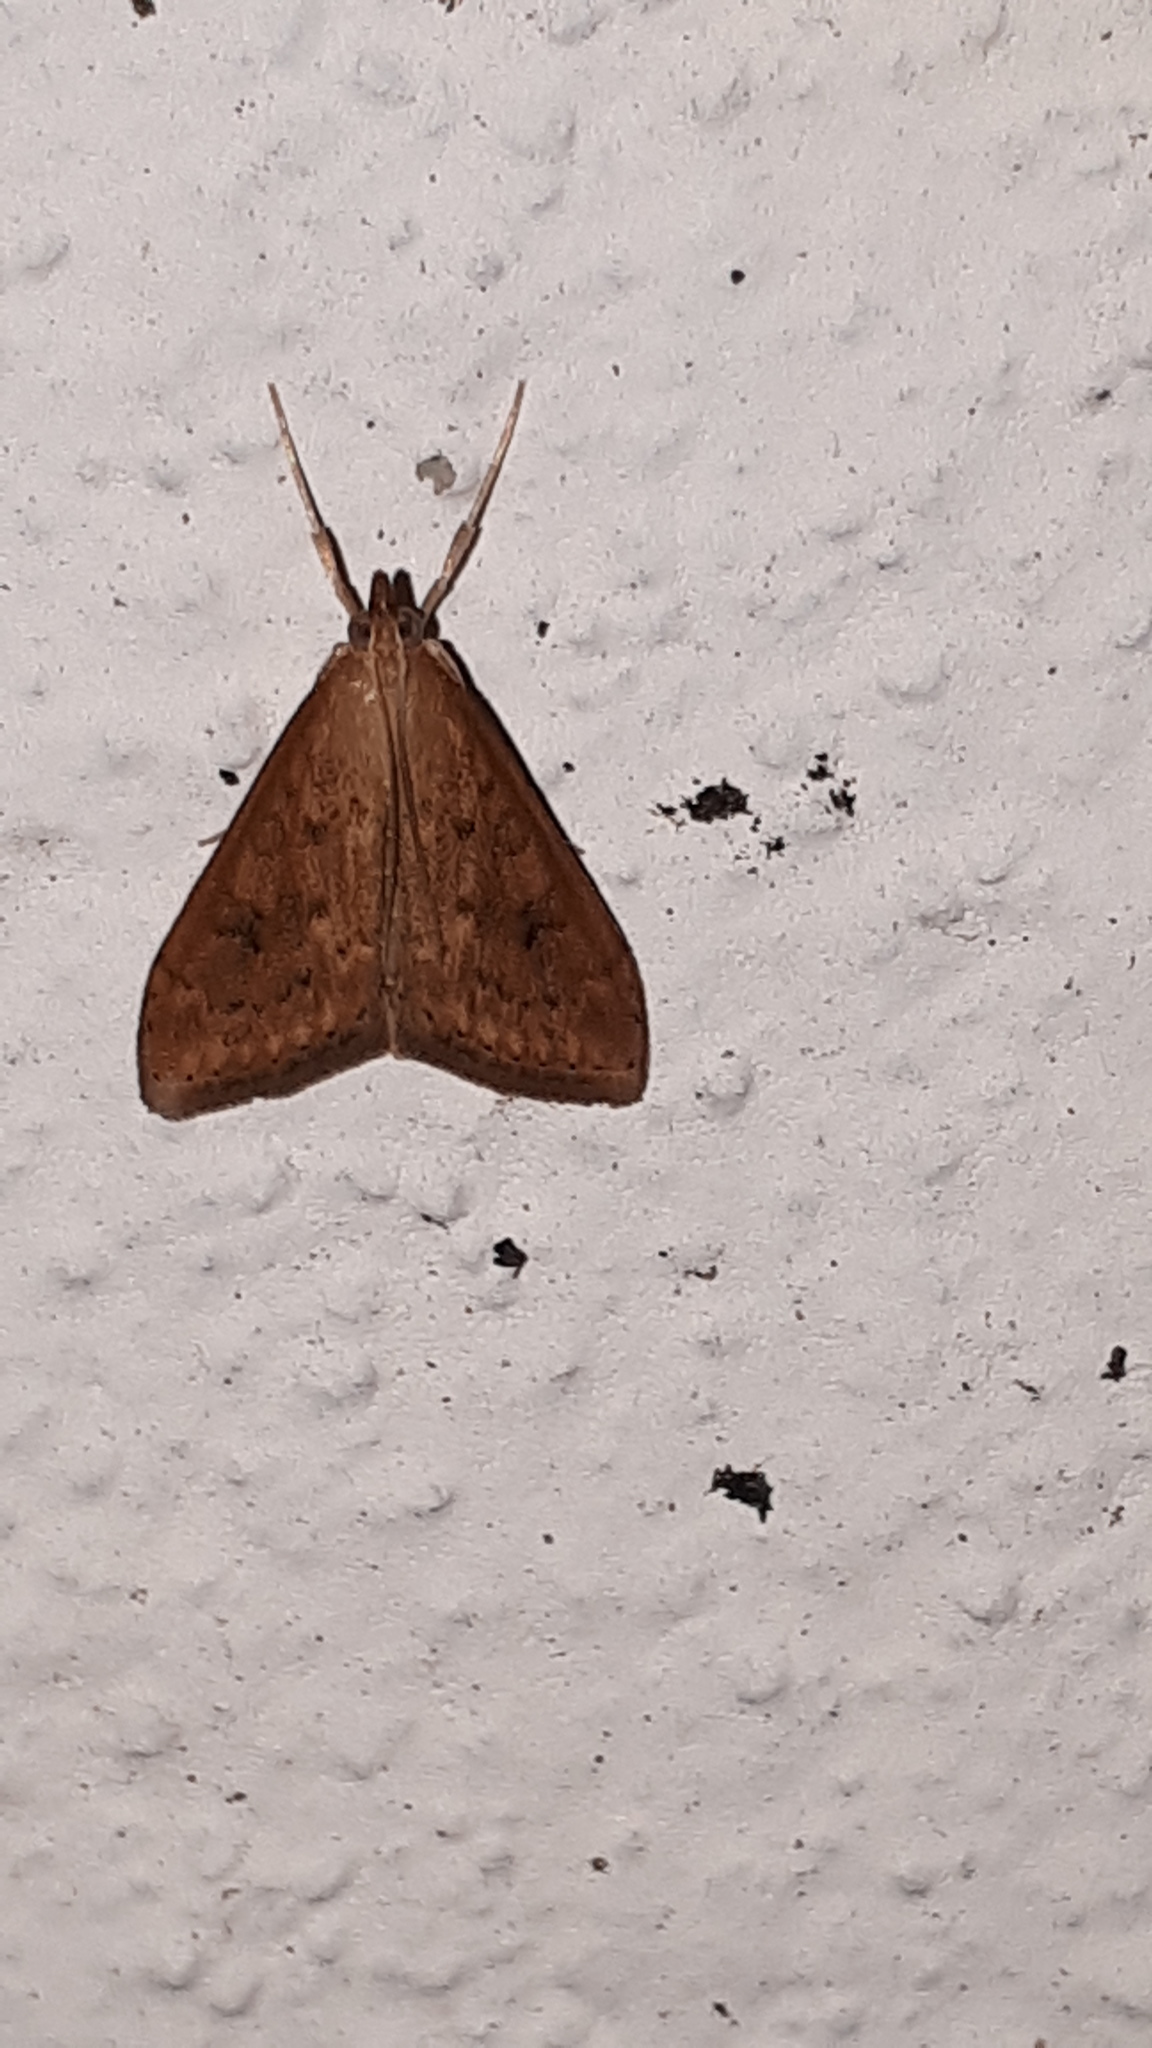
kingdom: Animalia
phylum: Arthropoda
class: Insecta
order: Lepidoptera
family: Crambidae
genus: Udea
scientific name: Udea ferrugalis
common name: Rusty dot
